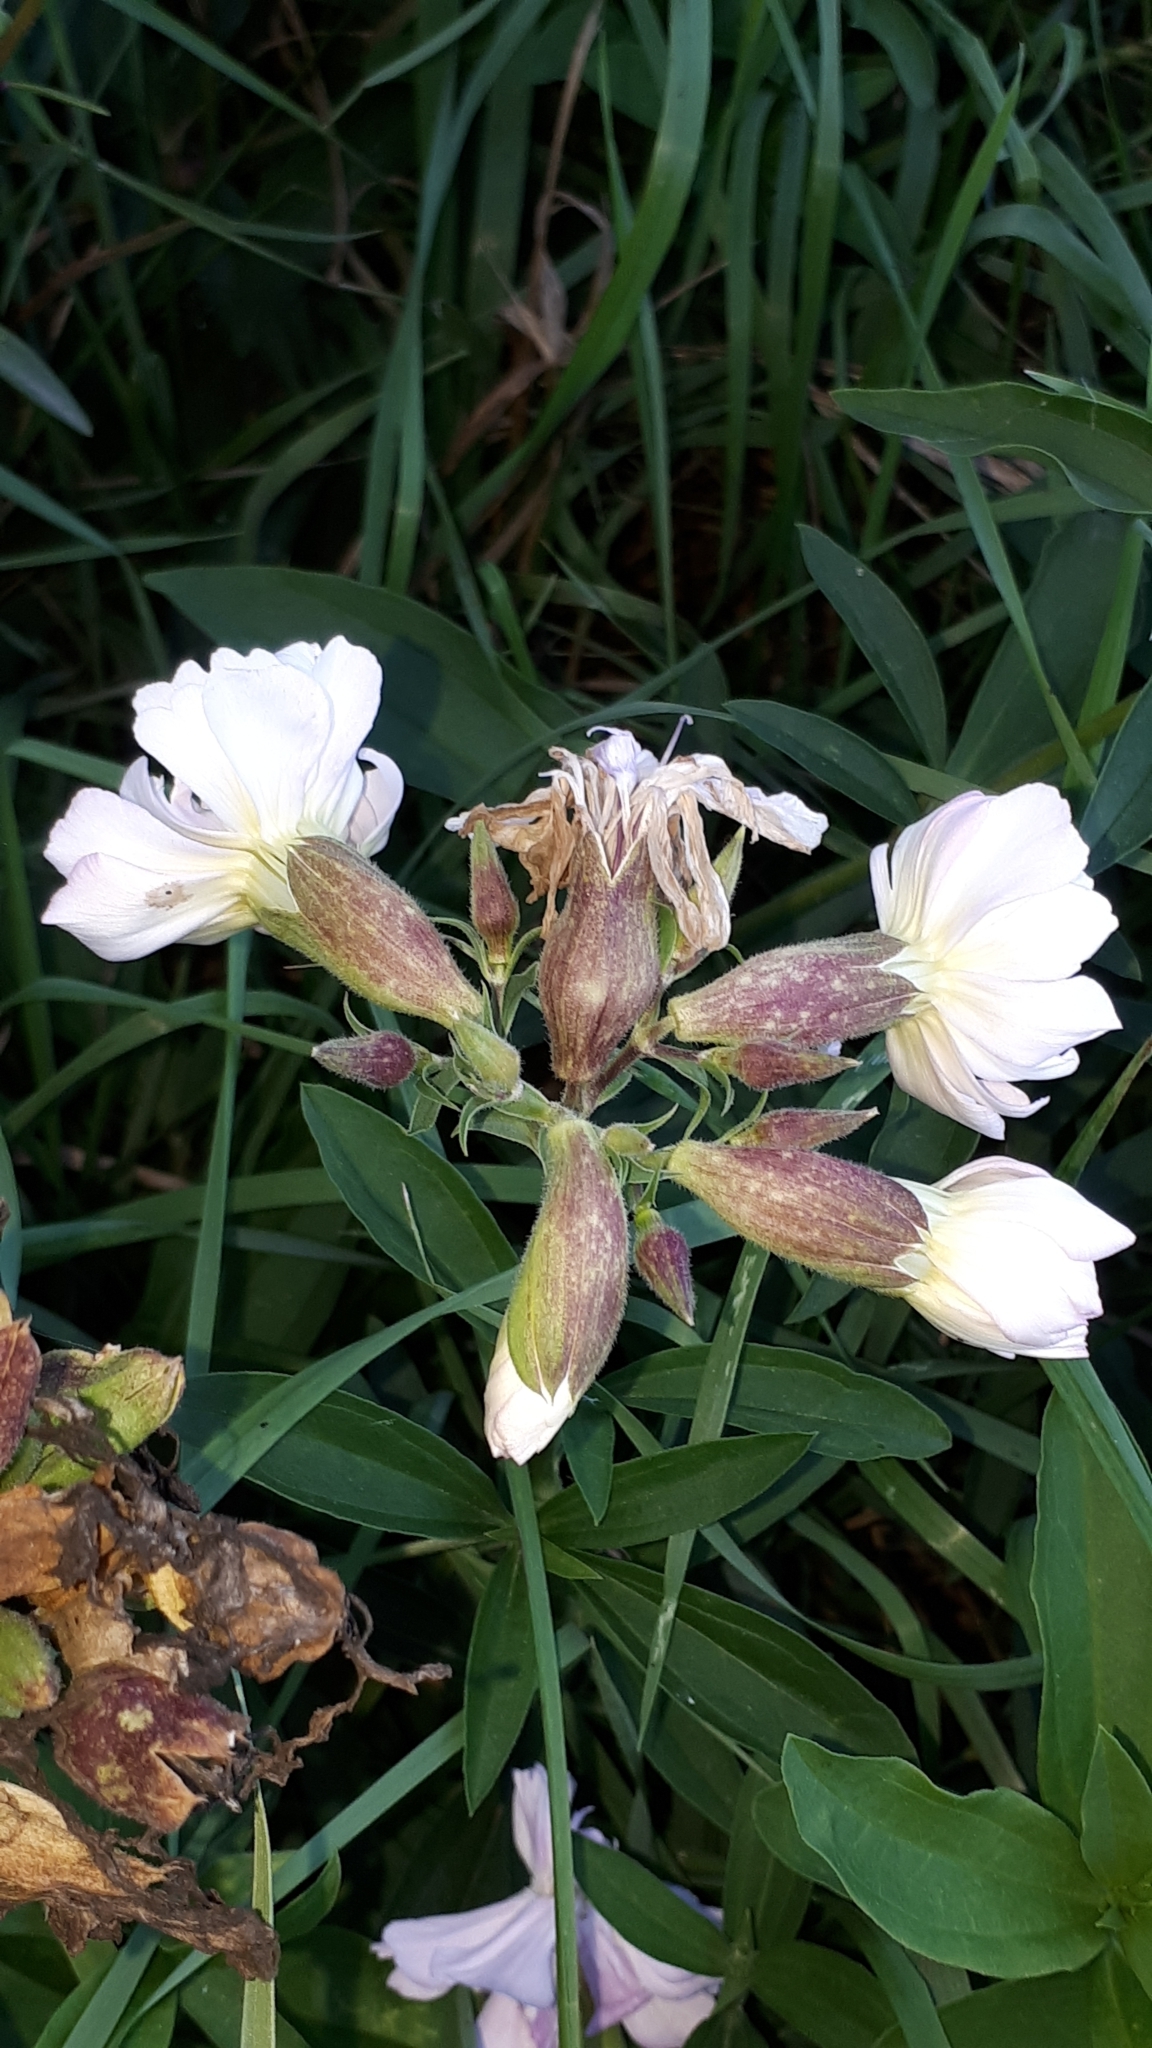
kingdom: Plantae
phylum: Tracheophyta
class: Magnoliopsida
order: Caryophyllales
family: Caryophyllaceae
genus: Saponaria
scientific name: Saponaria officinalis
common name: Soapwort
